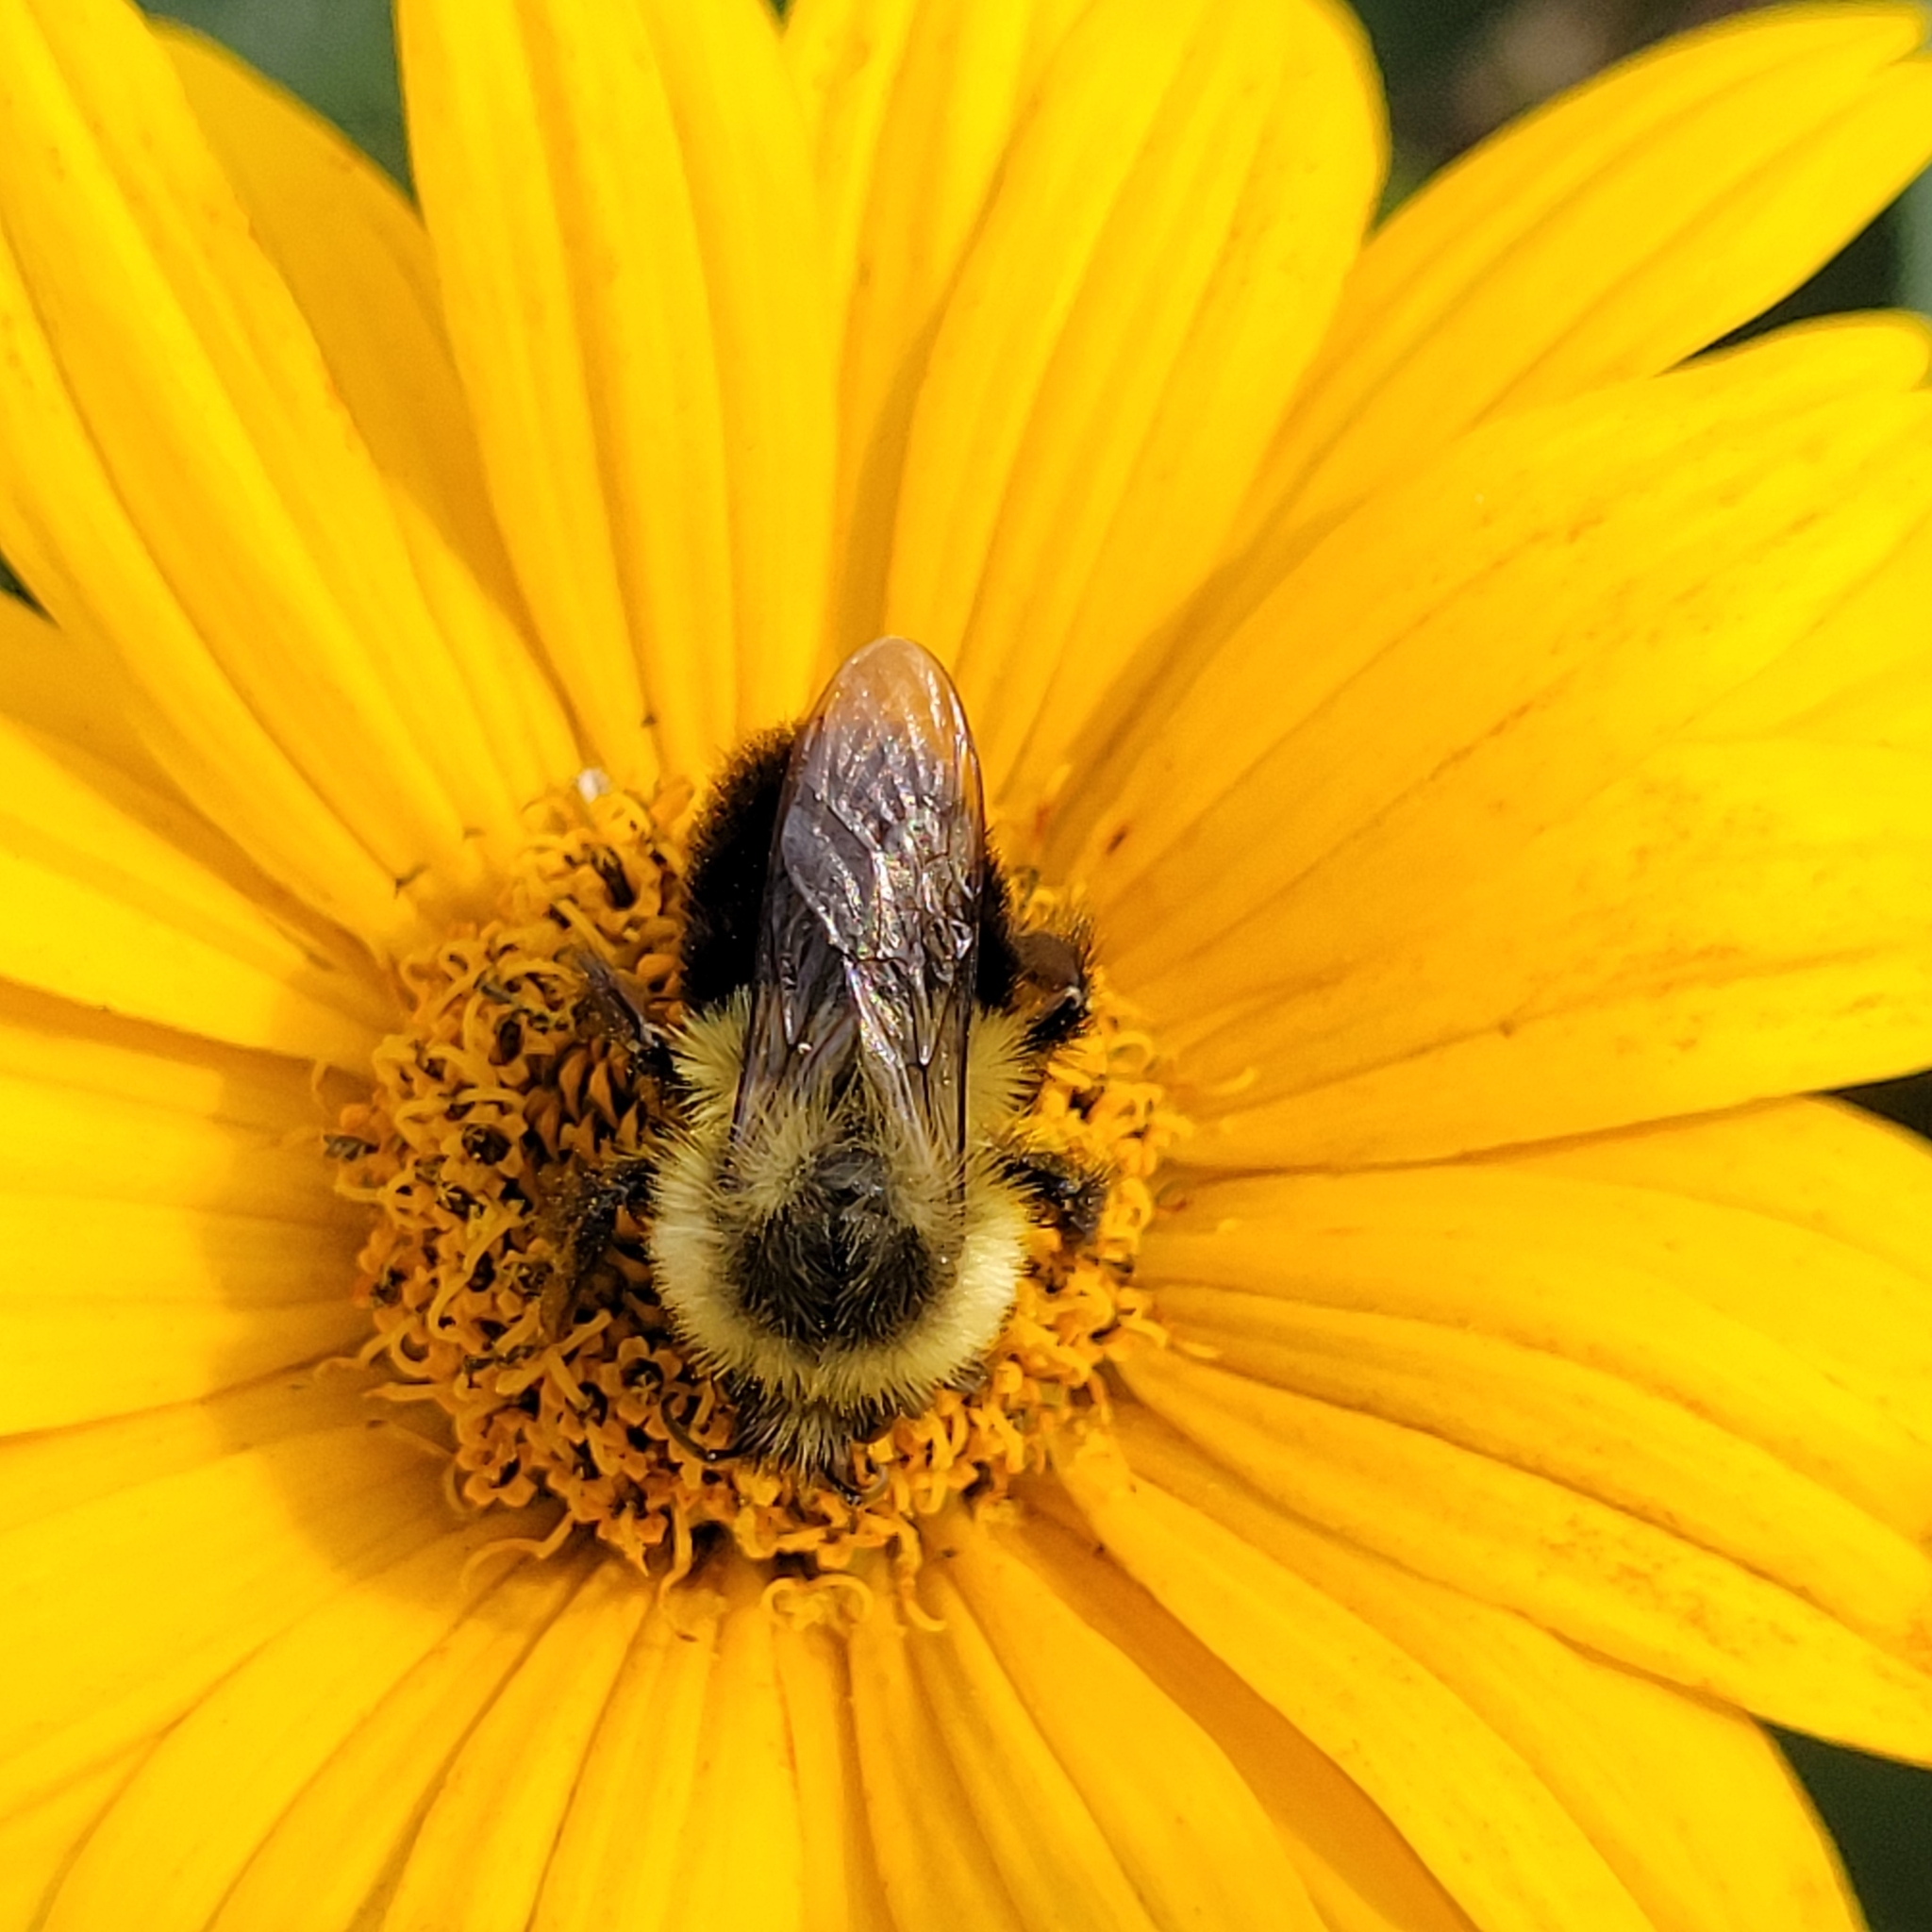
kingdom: Animalia
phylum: Arthropoda
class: Insecta
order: Hymenoptera
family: Apidae
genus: Bombus
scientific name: Bombus impatiens
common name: Common eastern bumble bee
